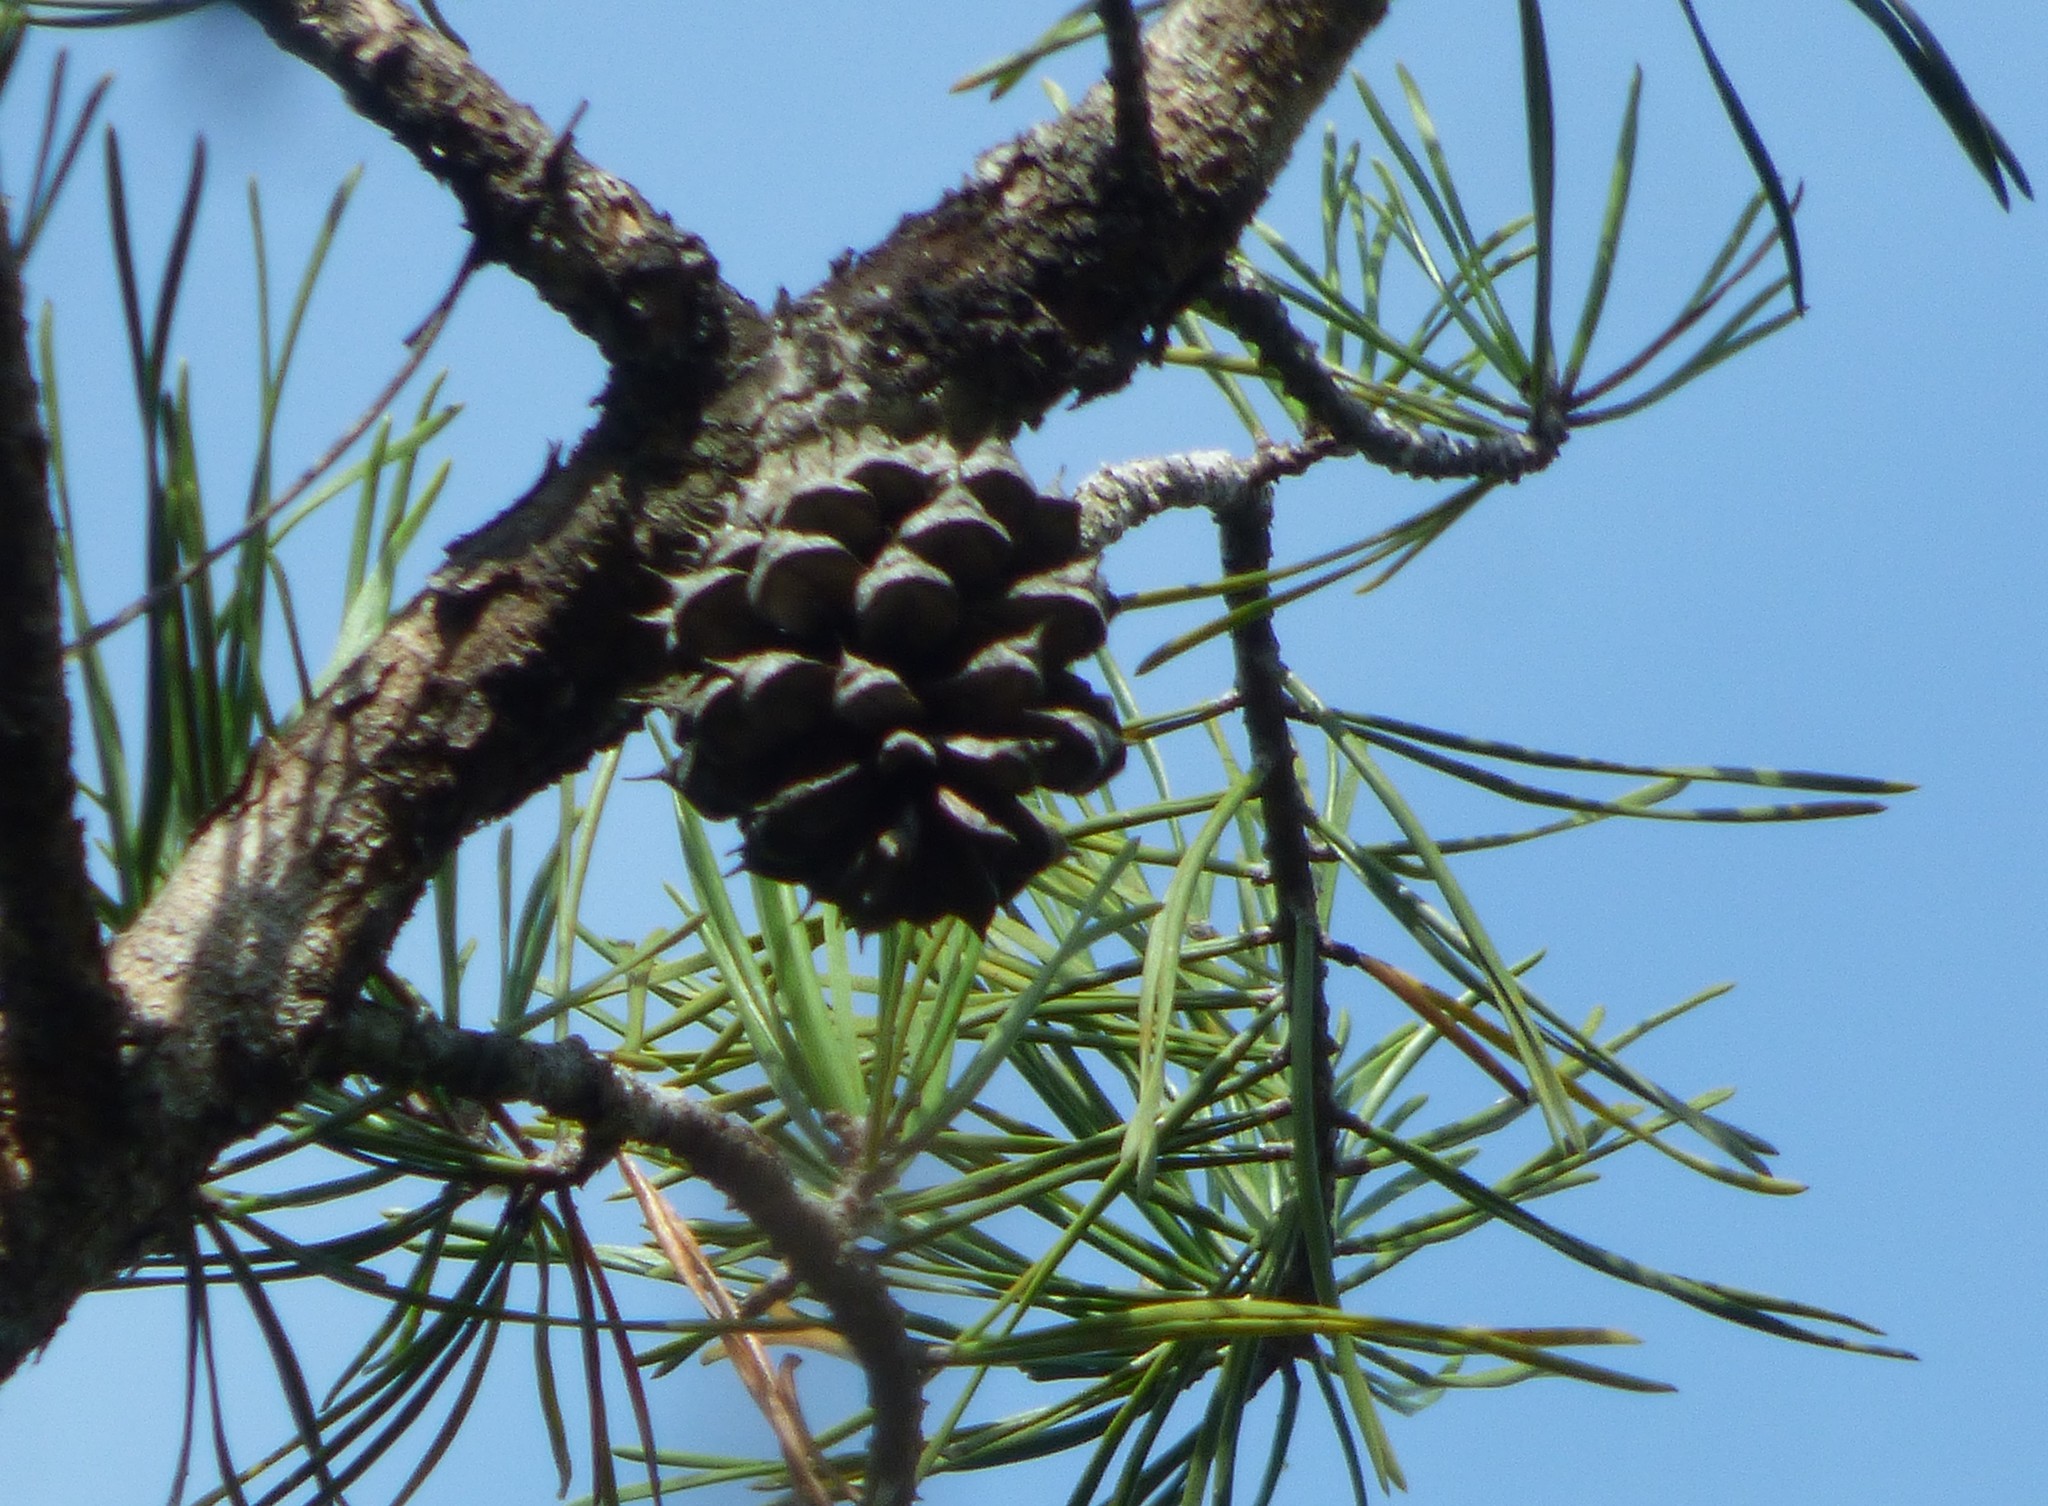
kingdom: Plantae
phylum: Tracheophyta
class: Pinopsida
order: Pinales
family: Pinaceae
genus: Pinus
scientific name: Pinus virginiana
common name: Scrub pine
